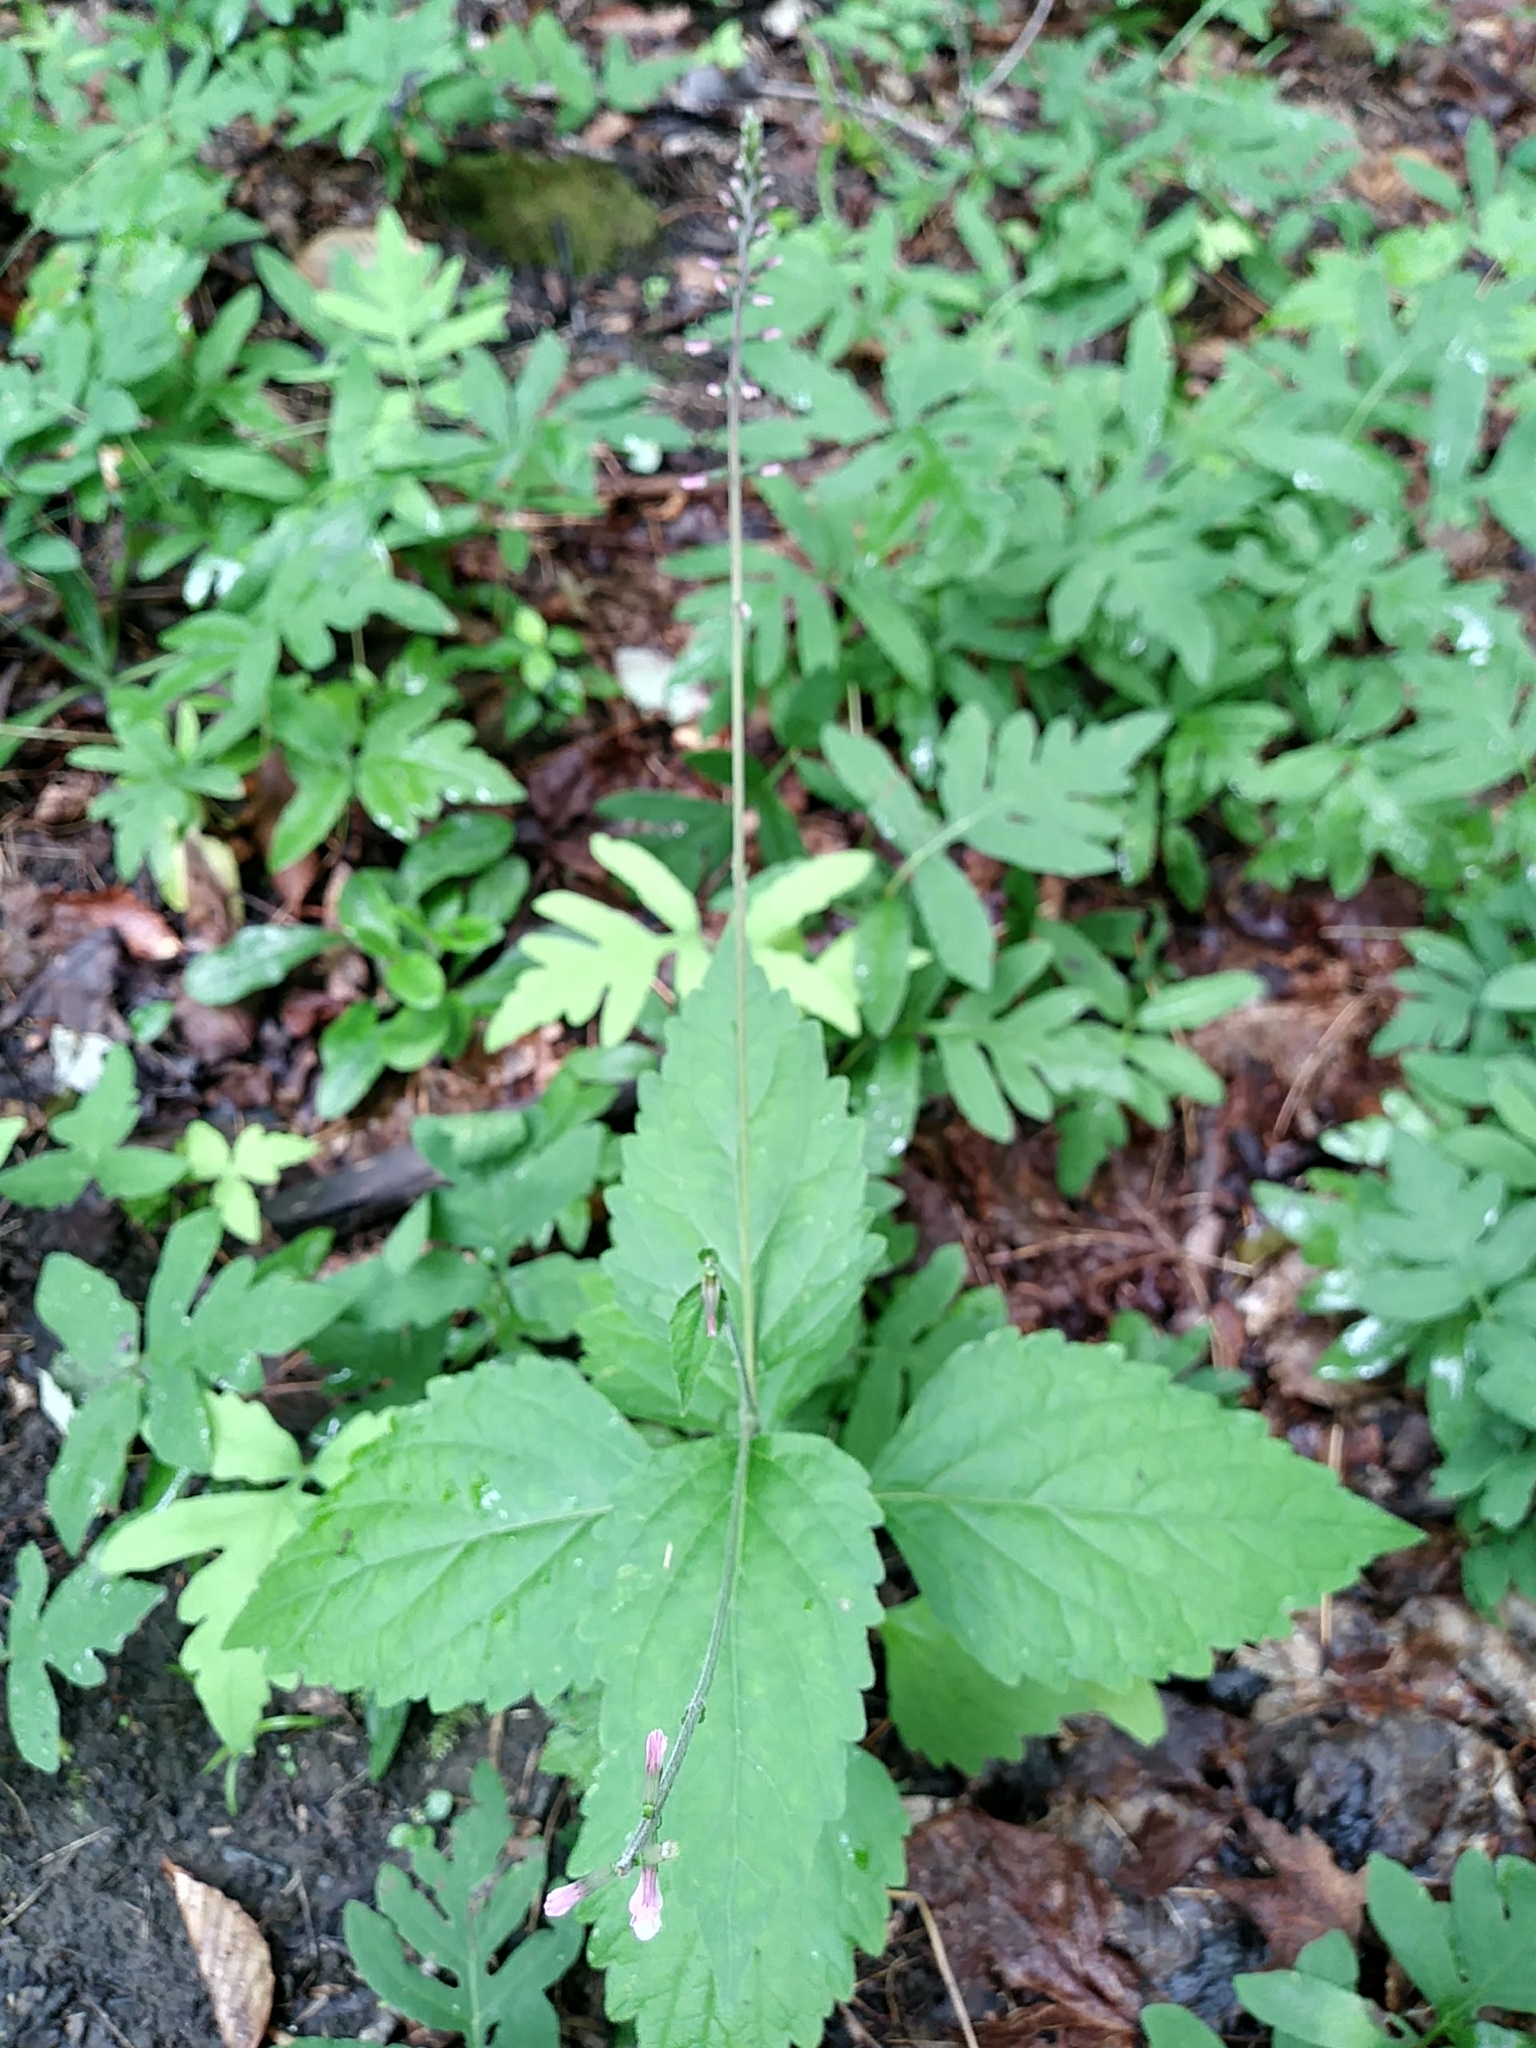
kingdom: Plantae
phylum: Tracheophyta
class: Magnoliopsida
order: Lamiales
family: Phrymaceae
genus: Phryma
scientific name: Phryma leptostachya
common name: American lopseed
